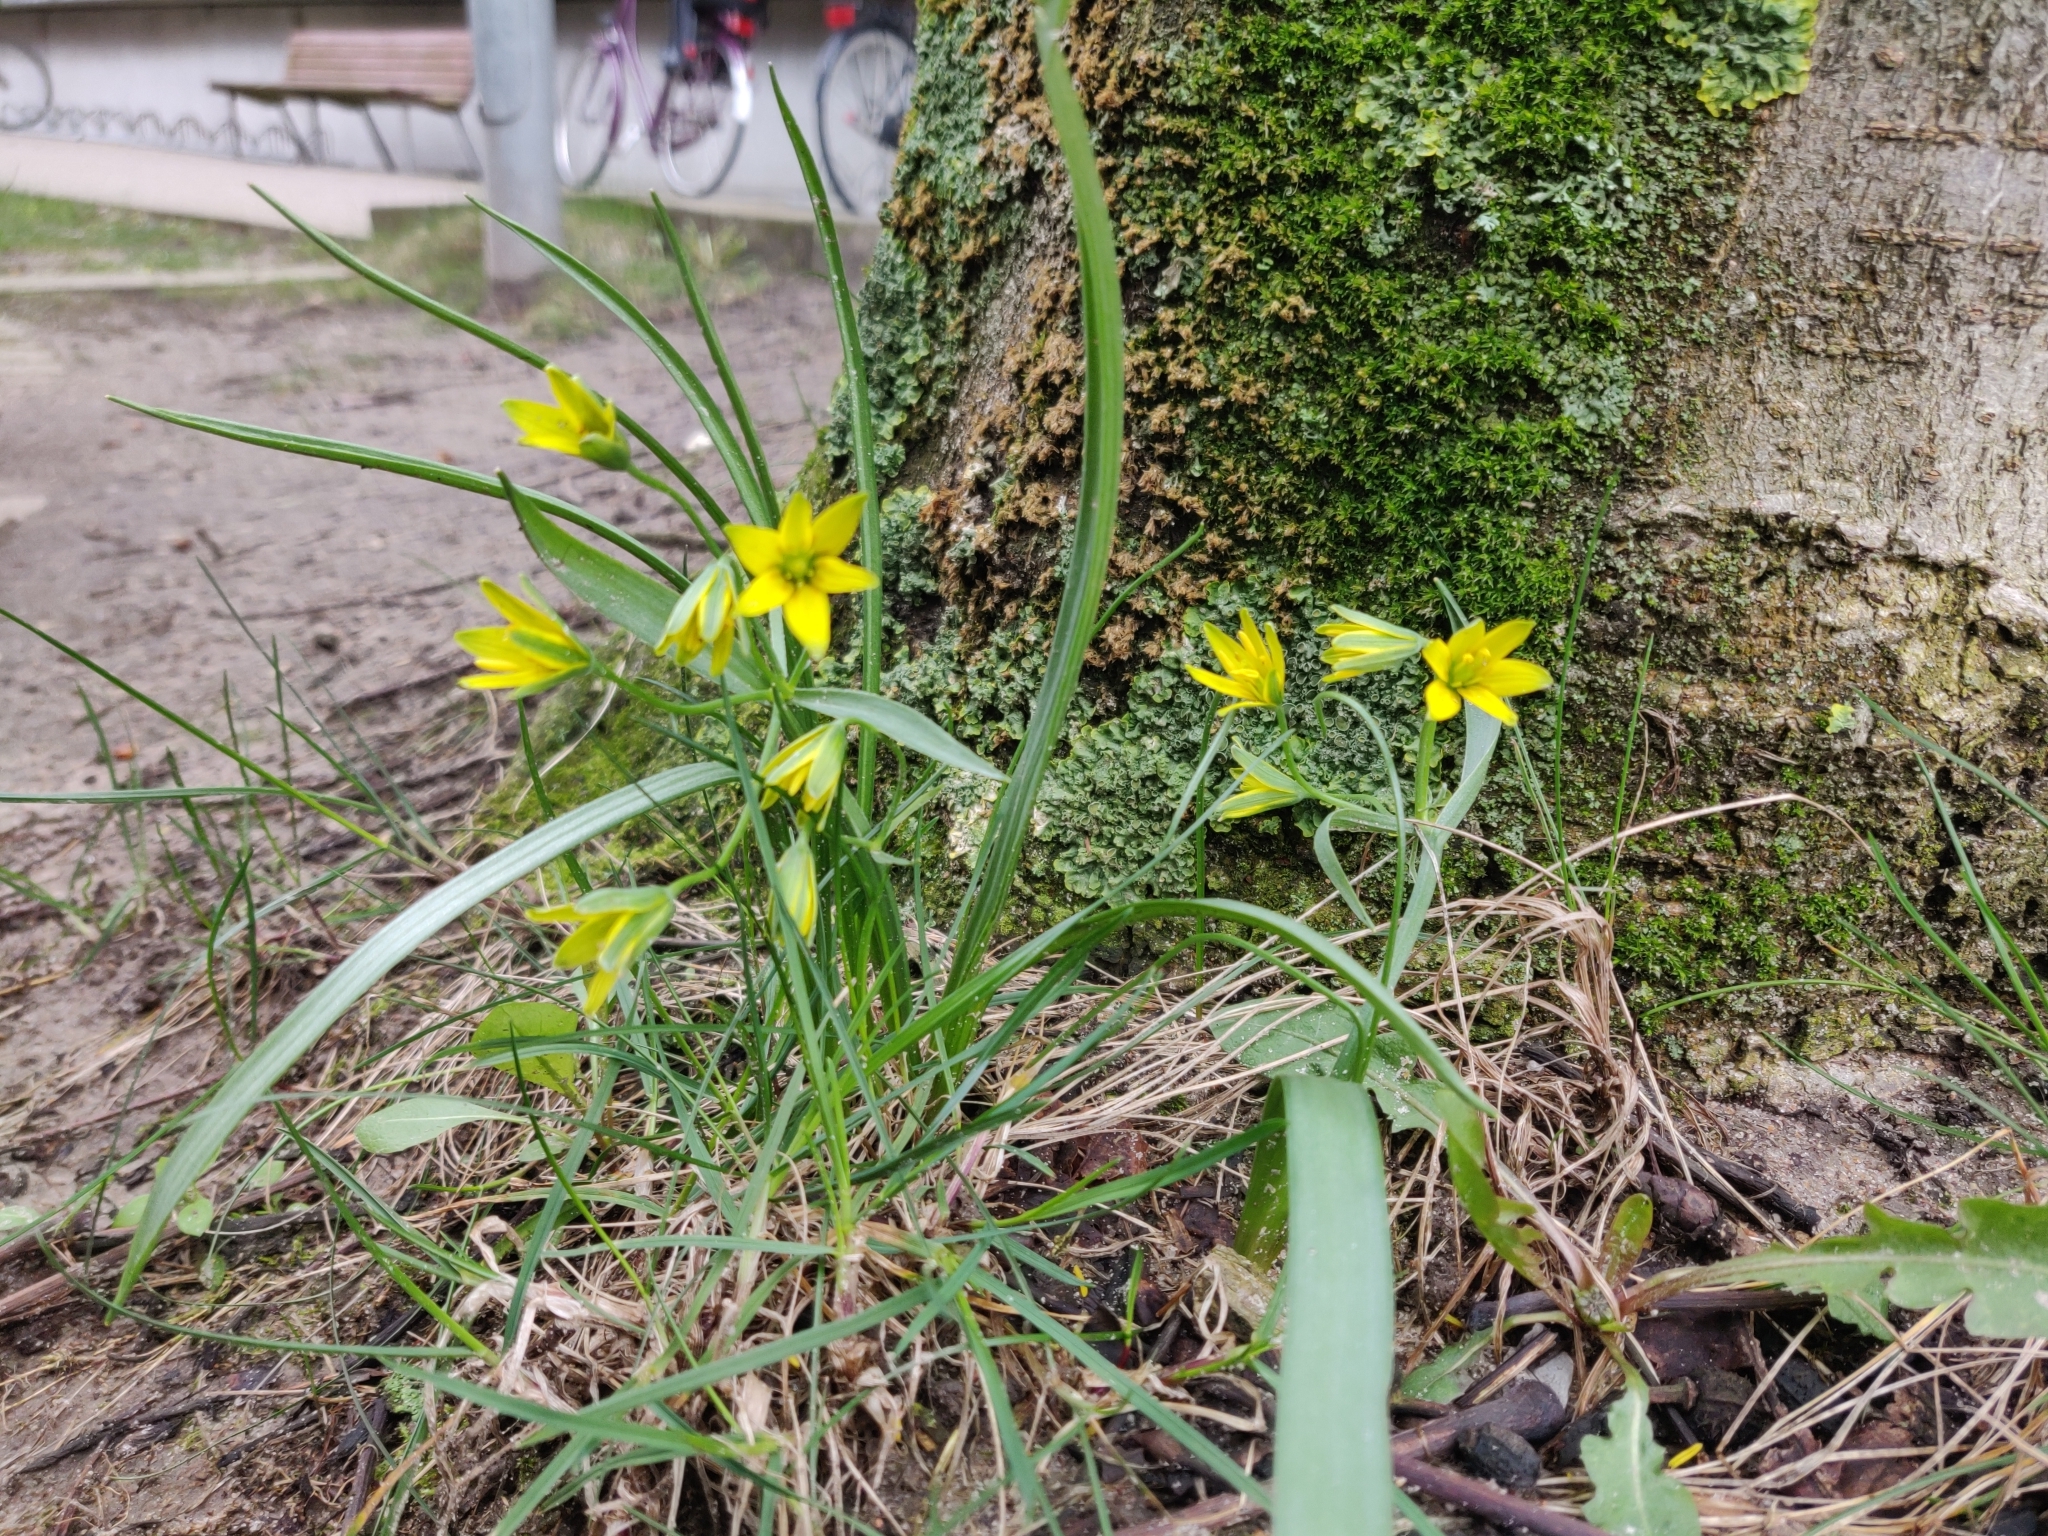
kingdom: Plantae
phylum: Tracheophyta
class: Liliopsida
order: Liliales
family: Liliaceae
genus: Gagea
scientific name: Gagea lutea
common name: Yellow star-of-bethlehem
